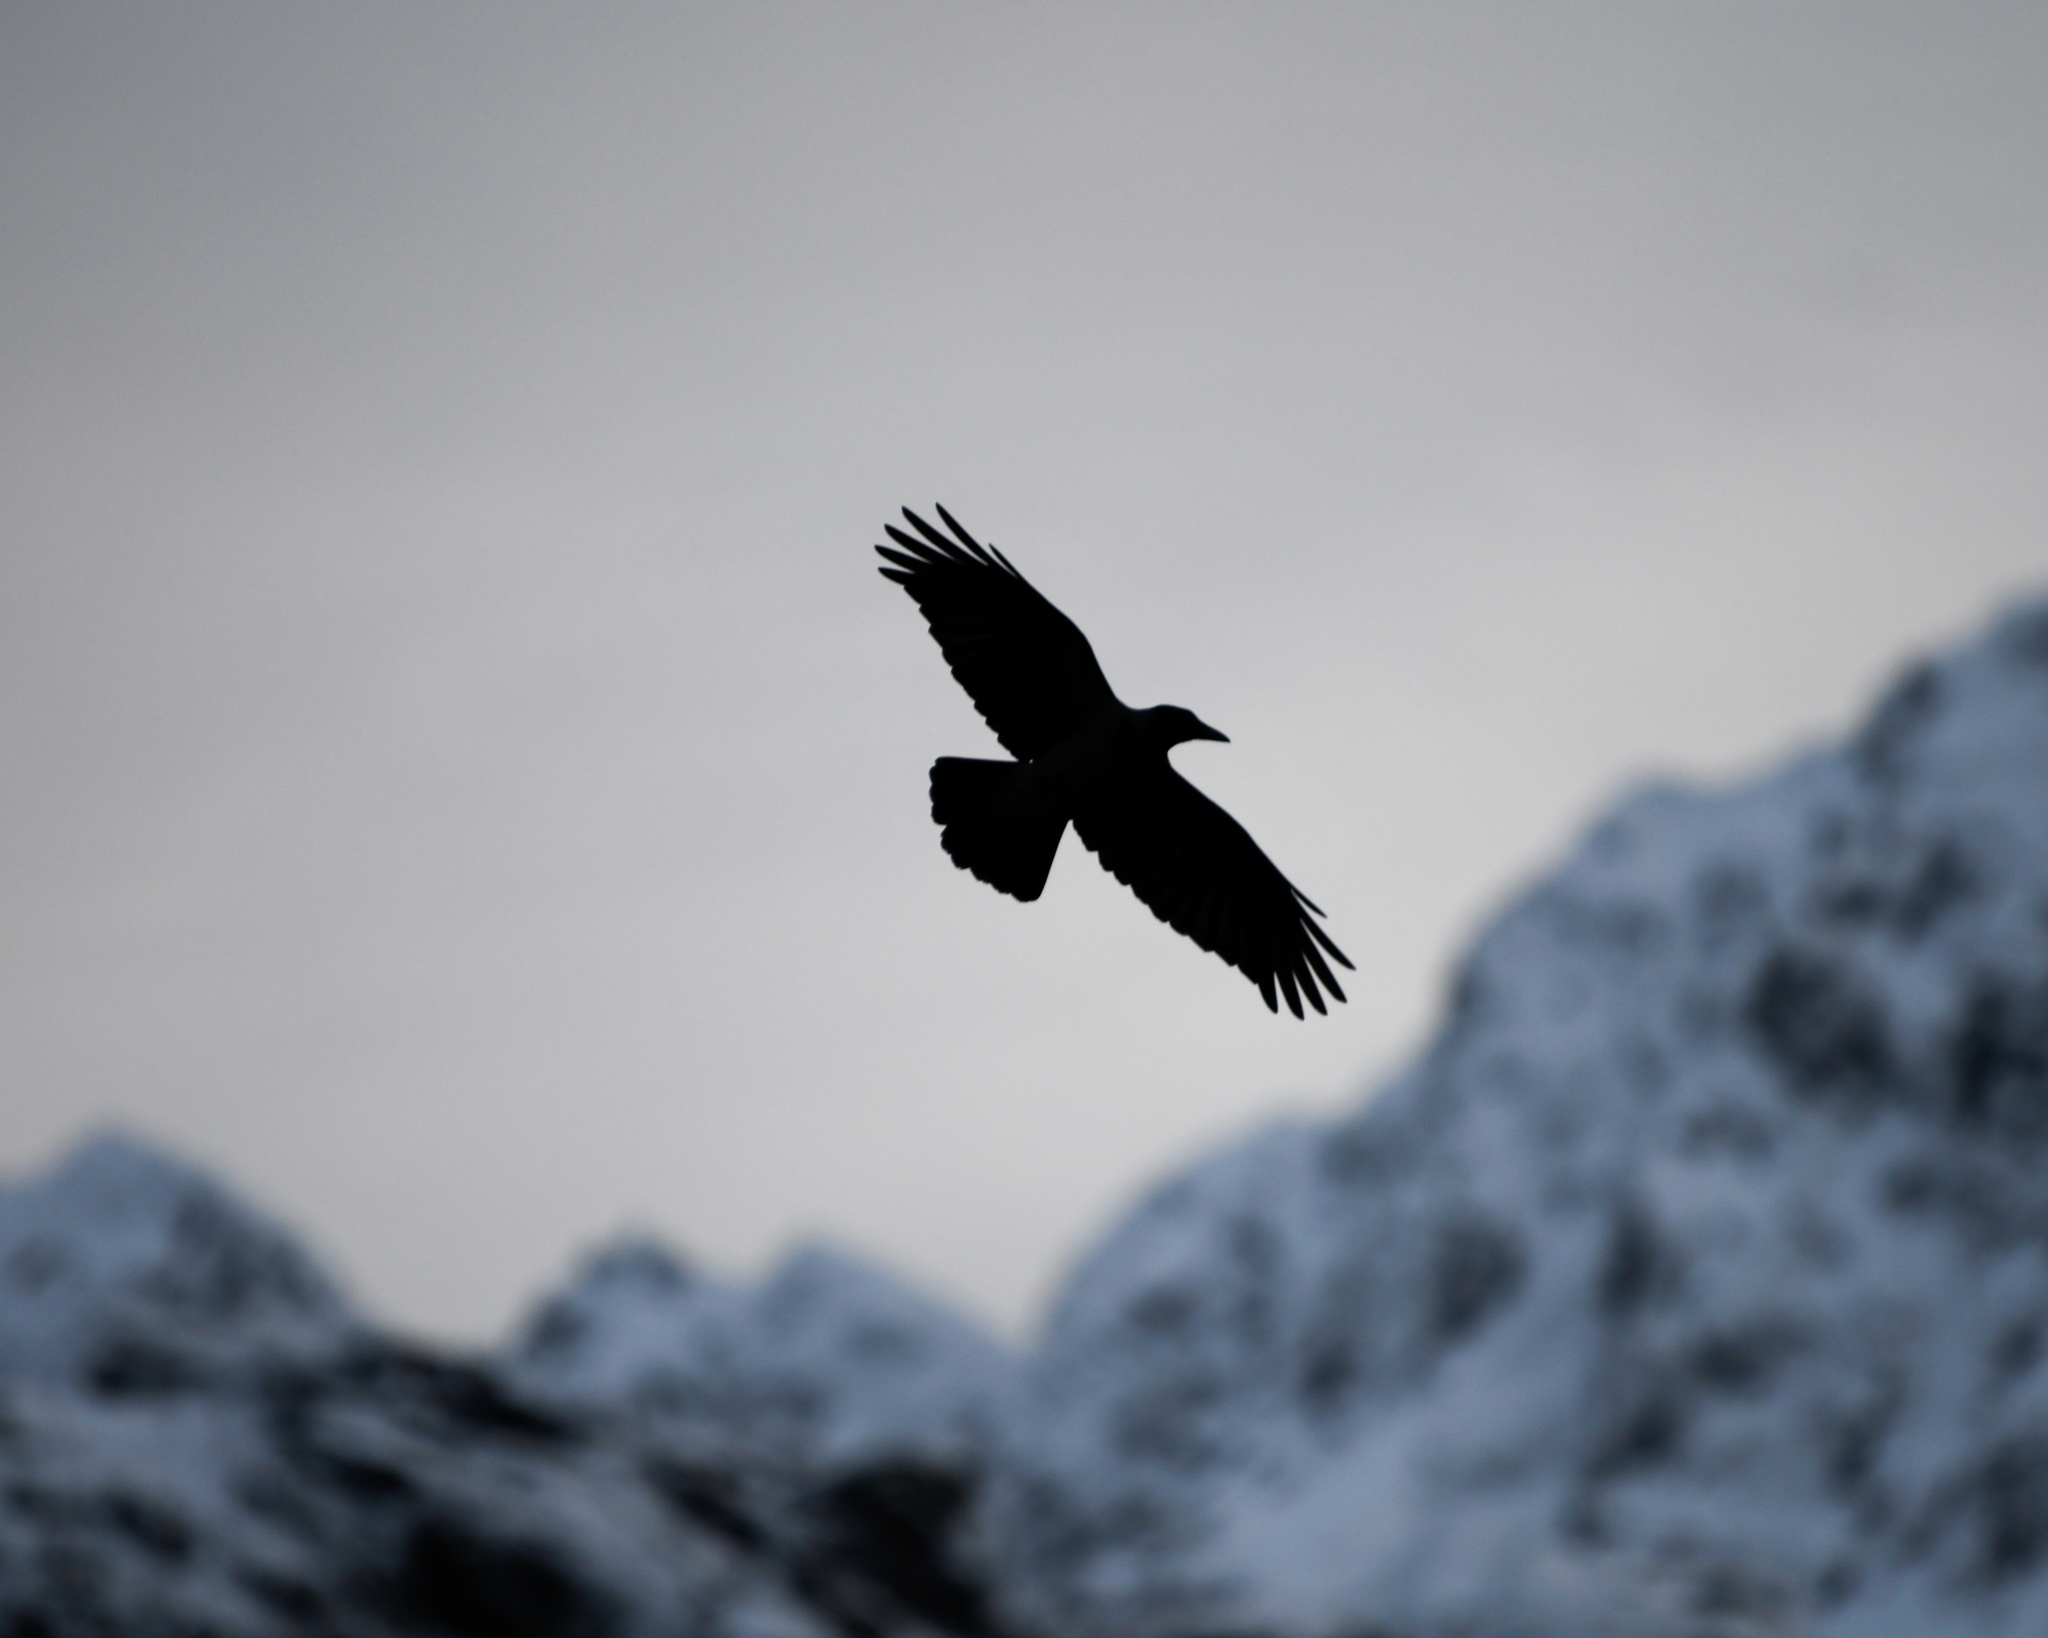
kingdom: Animalia
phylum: Chordata
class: Aves
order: Passeriformes
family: Corvidae
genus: Corvus
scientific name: Corvus frugilegus
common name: Rook
